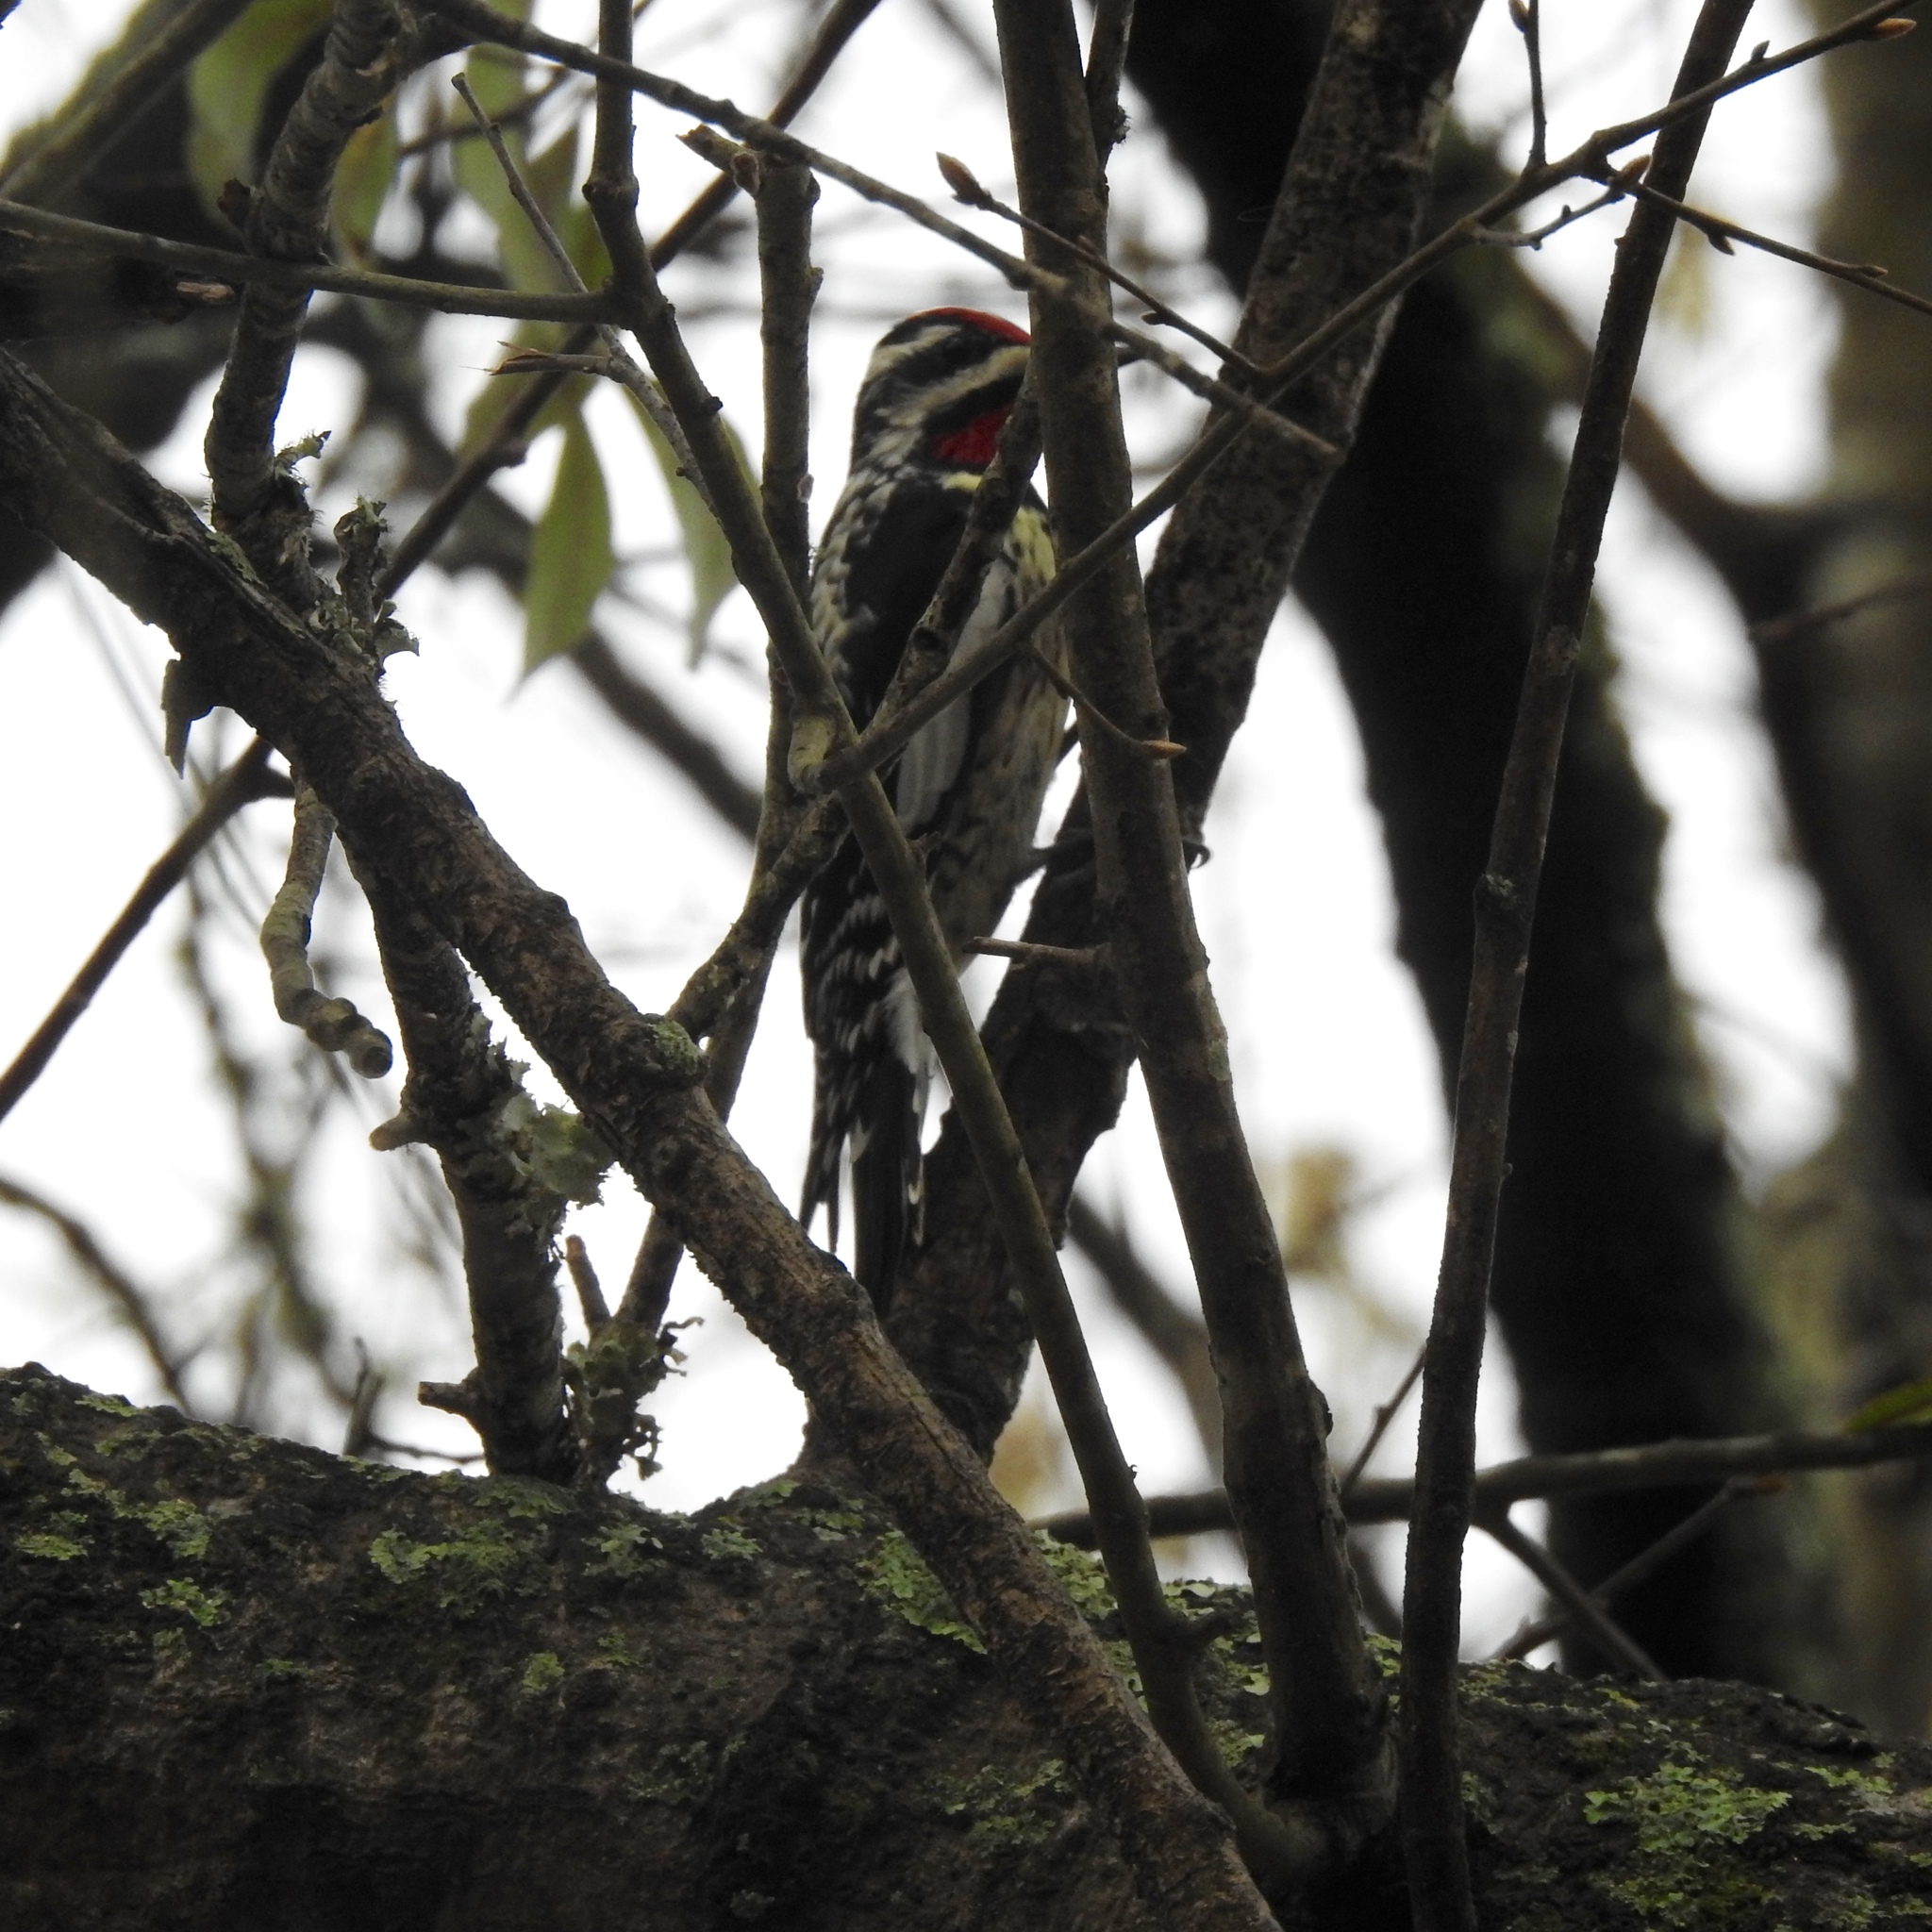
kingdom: Animalia
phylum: Chordata
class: Aves
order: Piciformes
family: Picidae
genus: Sphyrapicus
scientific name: Sphyrapicus varius
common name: Yellow-bellied sapsucker
